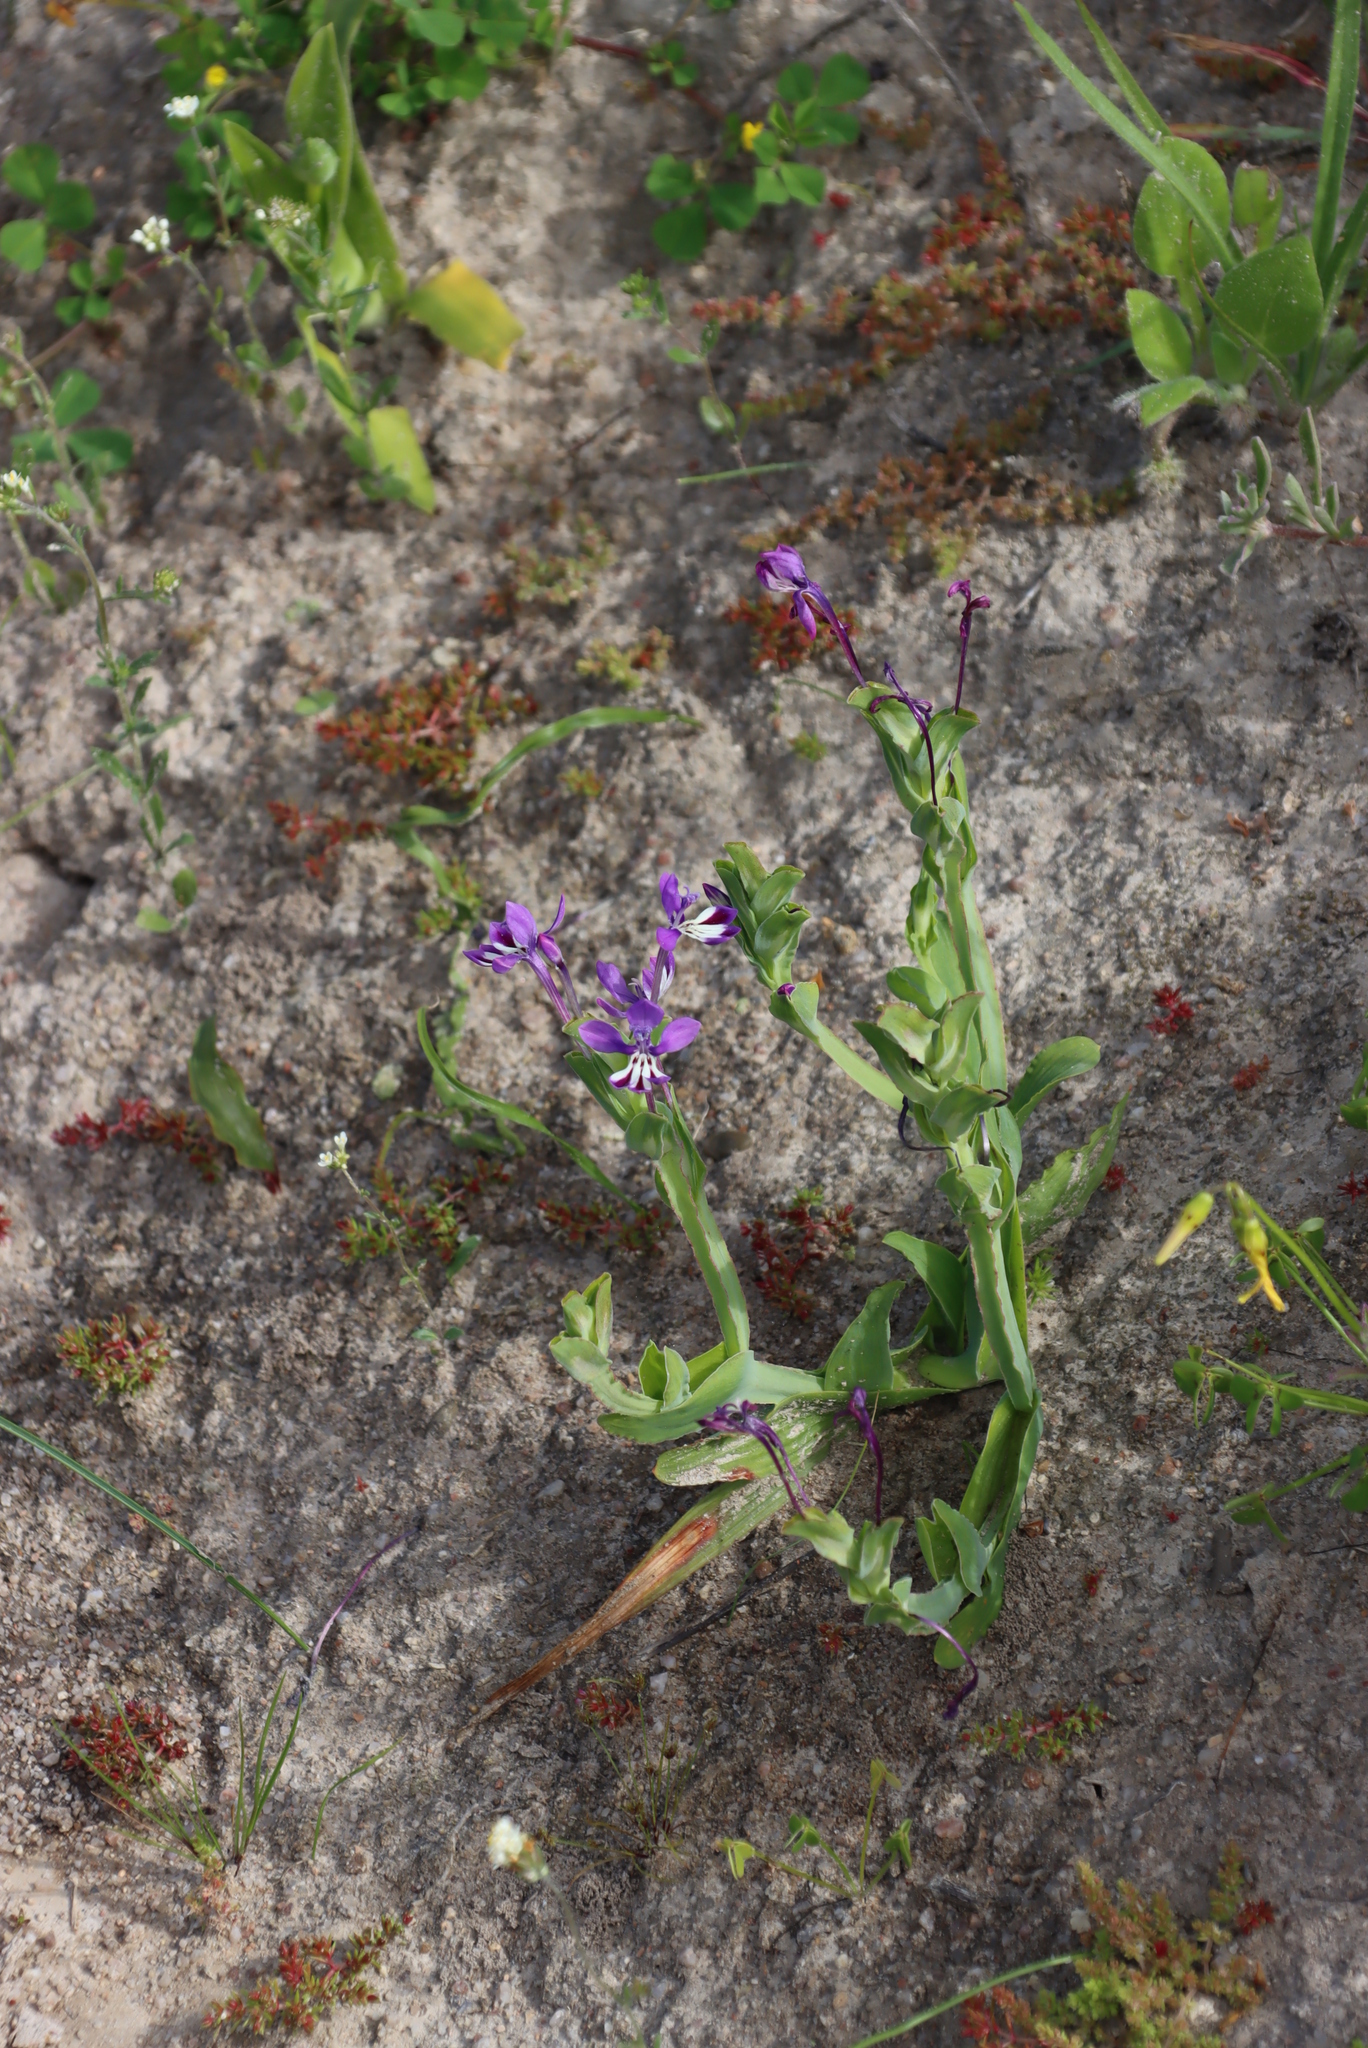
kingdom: Plantae
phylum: Tracheophyta
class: Liliopsida
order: Asparagales
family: Iridaceae
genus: Lapeirousia
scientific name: Lapeirousia jacquinii
